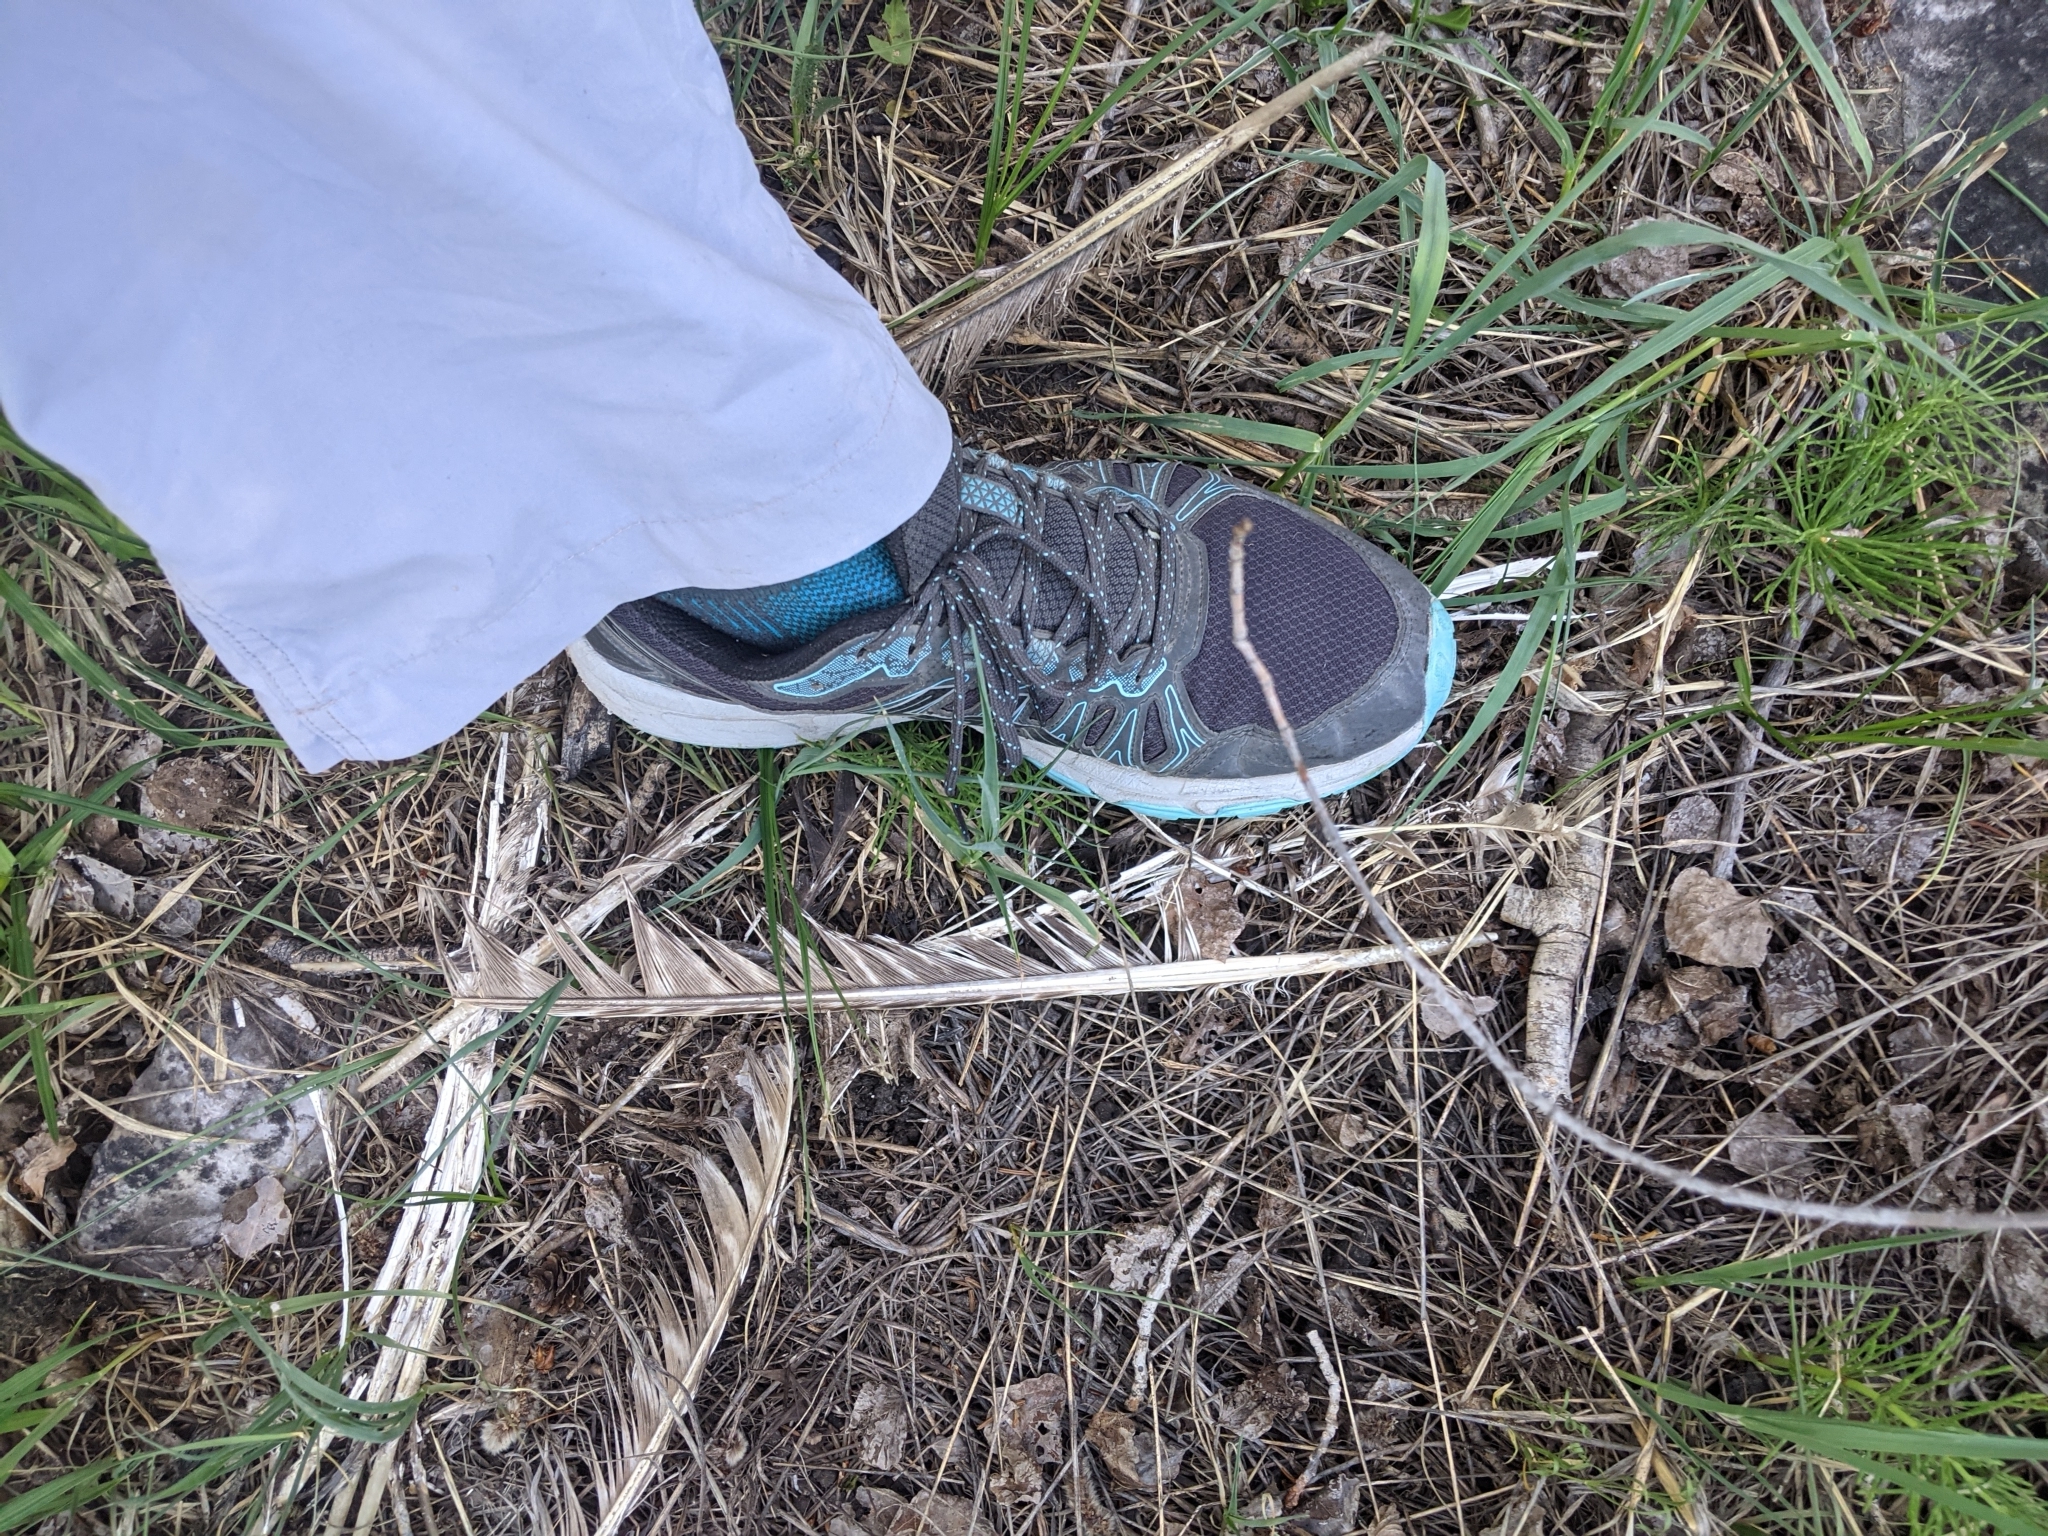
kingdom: Animalia
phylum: Chordata
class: Aves
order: Galliformes
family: Phasianidae
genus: Meleagris
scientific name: Meleagris gallopavo
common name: Wild turkey
